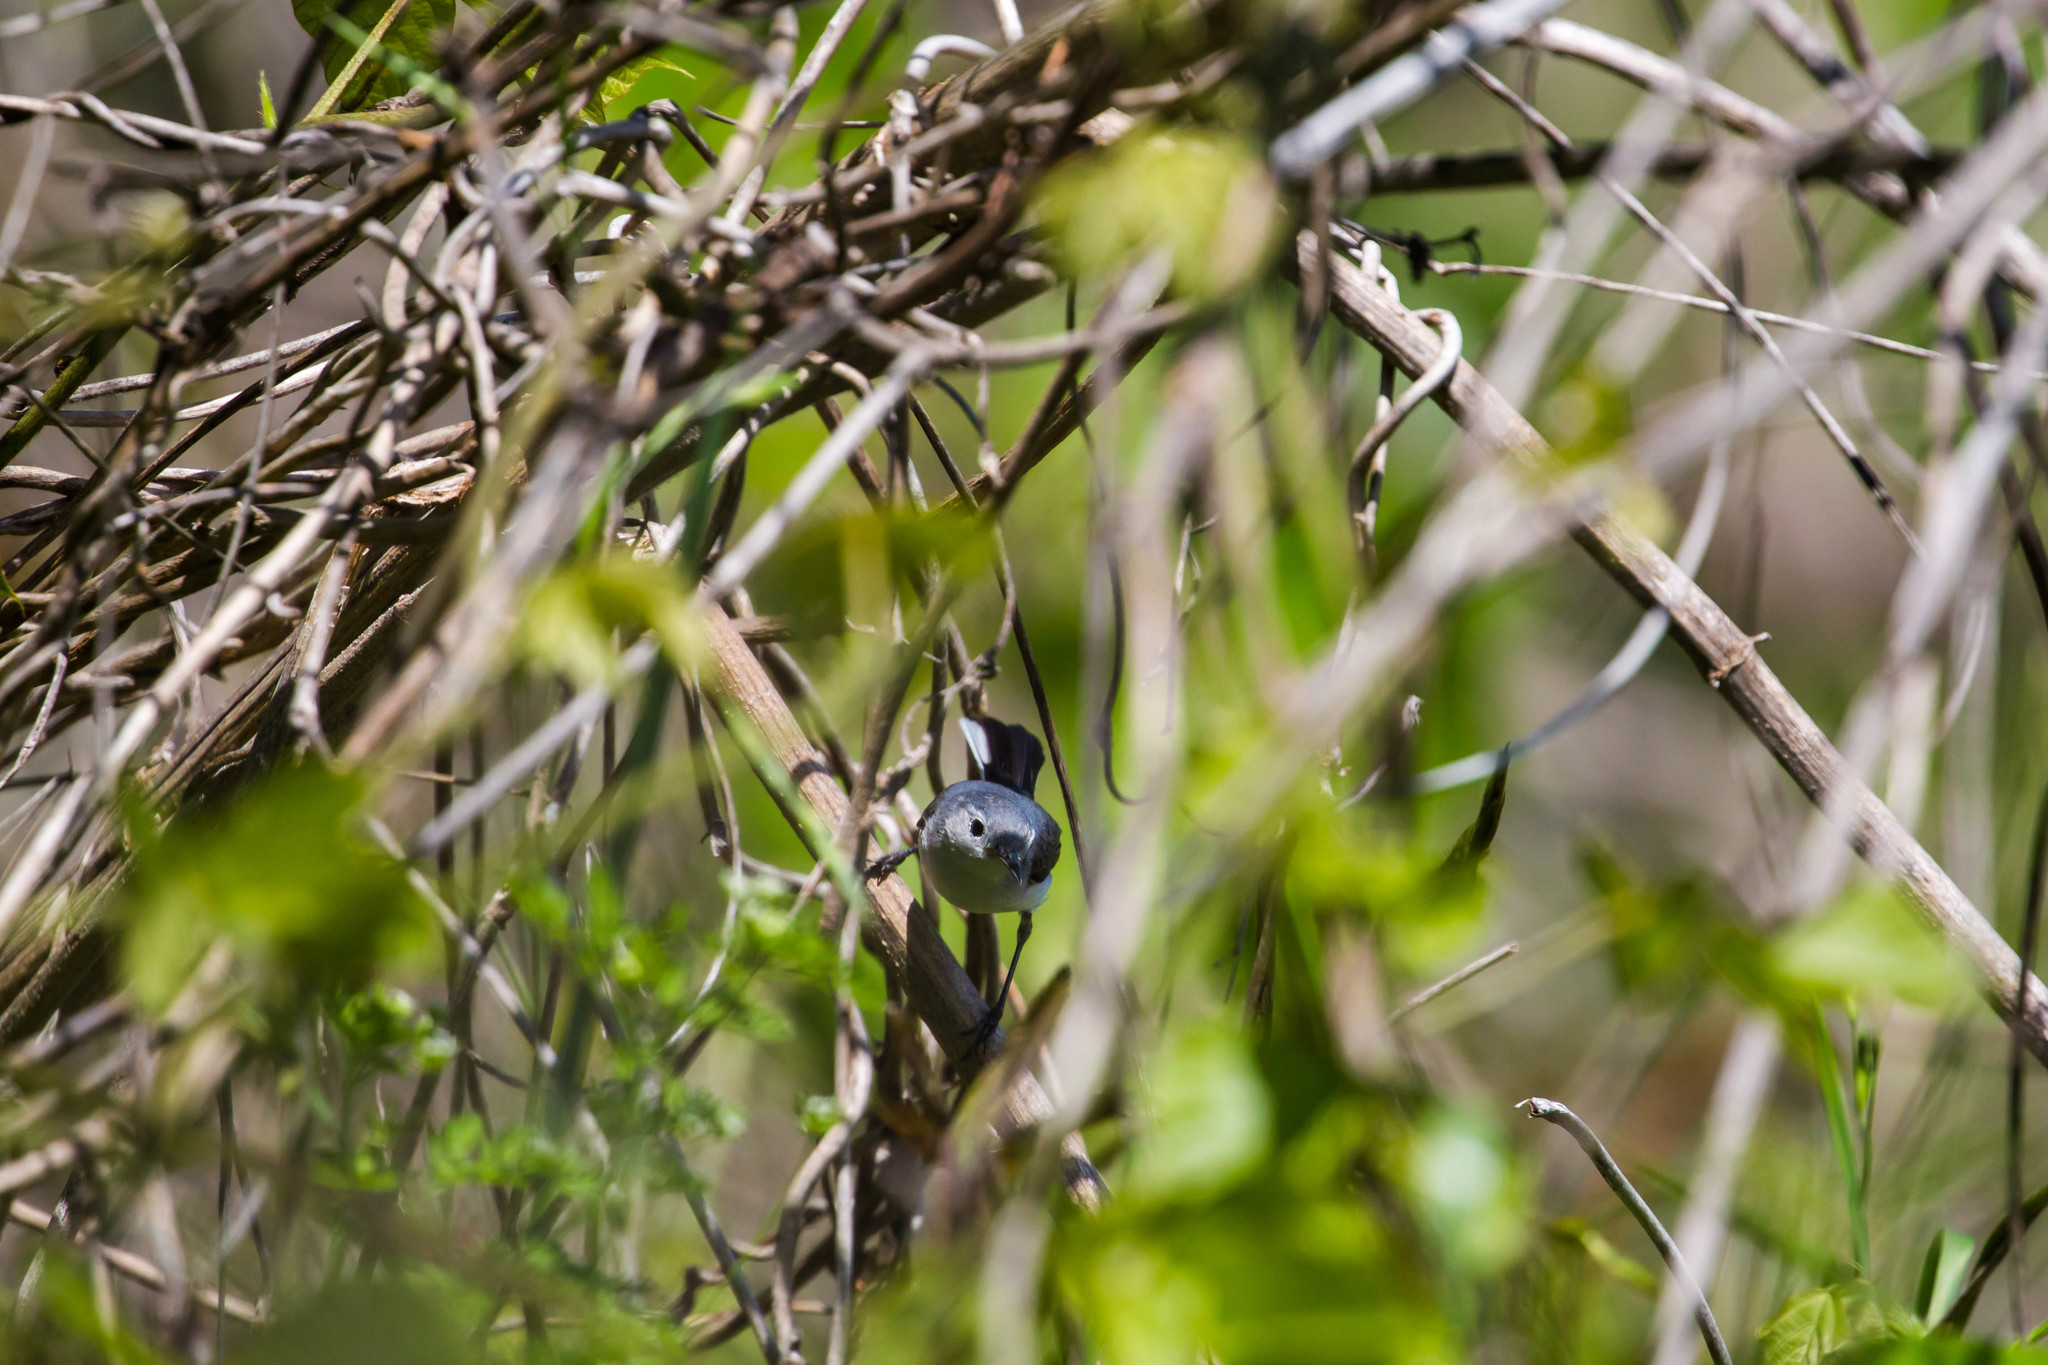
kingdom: Animalia
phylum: Chordata
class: Aves
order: Passeriformes
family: Polioptilidae
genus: Polioptila
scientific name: Polioptila caerulea
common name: Blue-gray gnatcatcher
